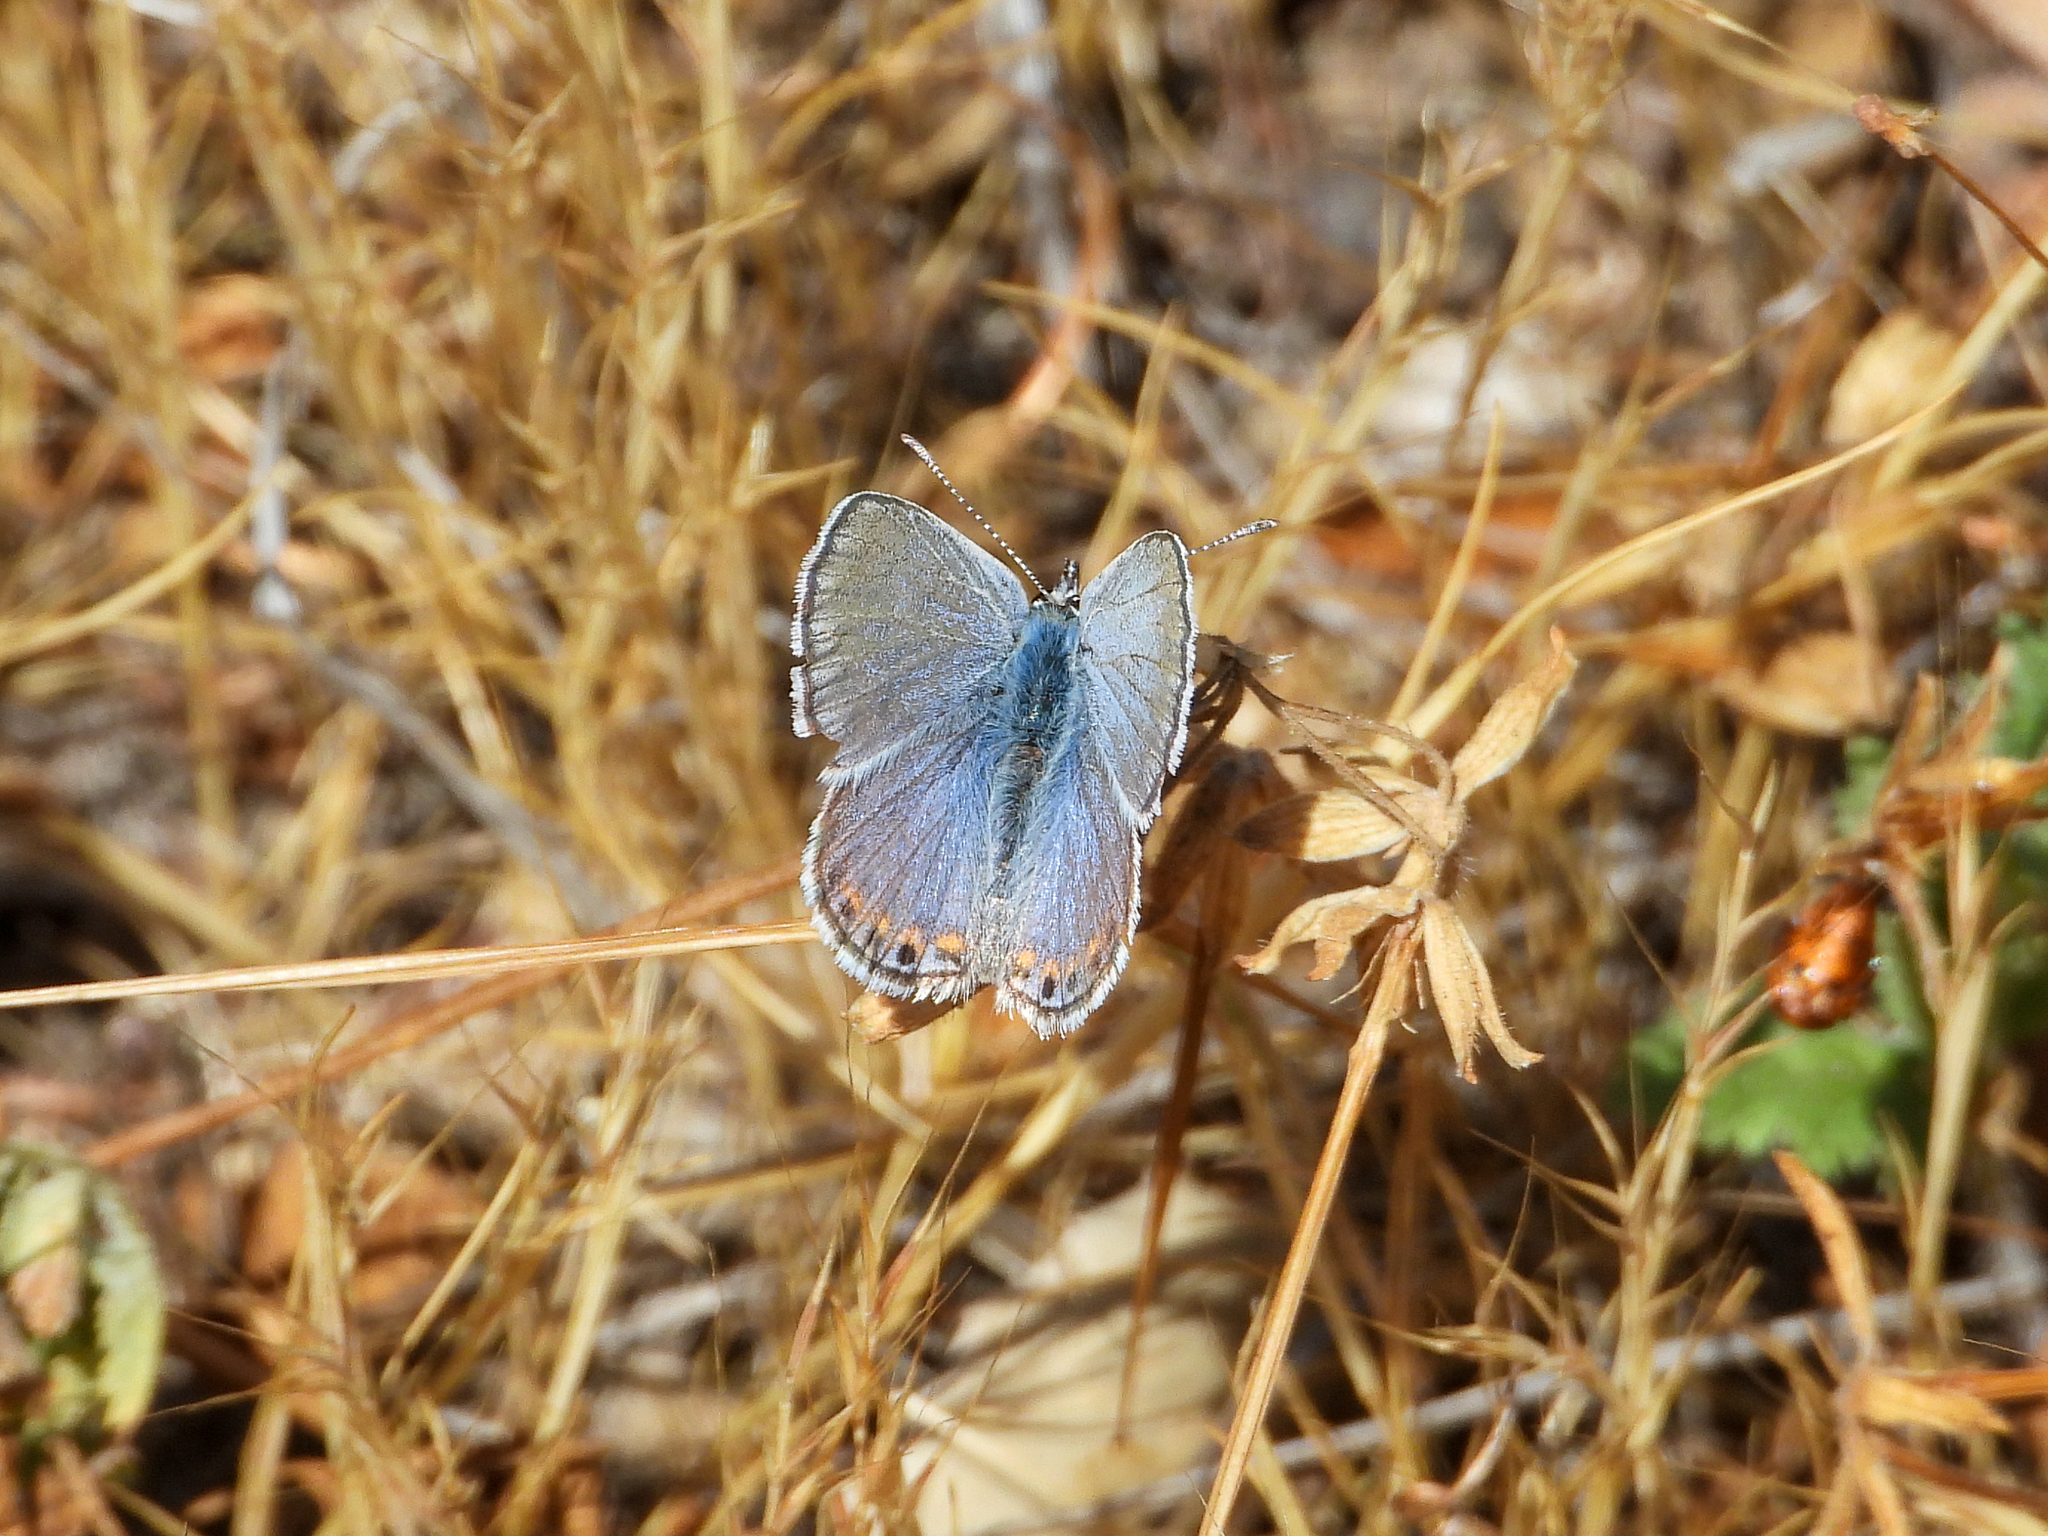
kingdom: Animalia
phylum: Arthropoda
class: Insecta
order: Lepidoptera
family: Lycaenidae
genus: Icaricia
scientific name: Icaricia acmon
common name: Acmon blue
